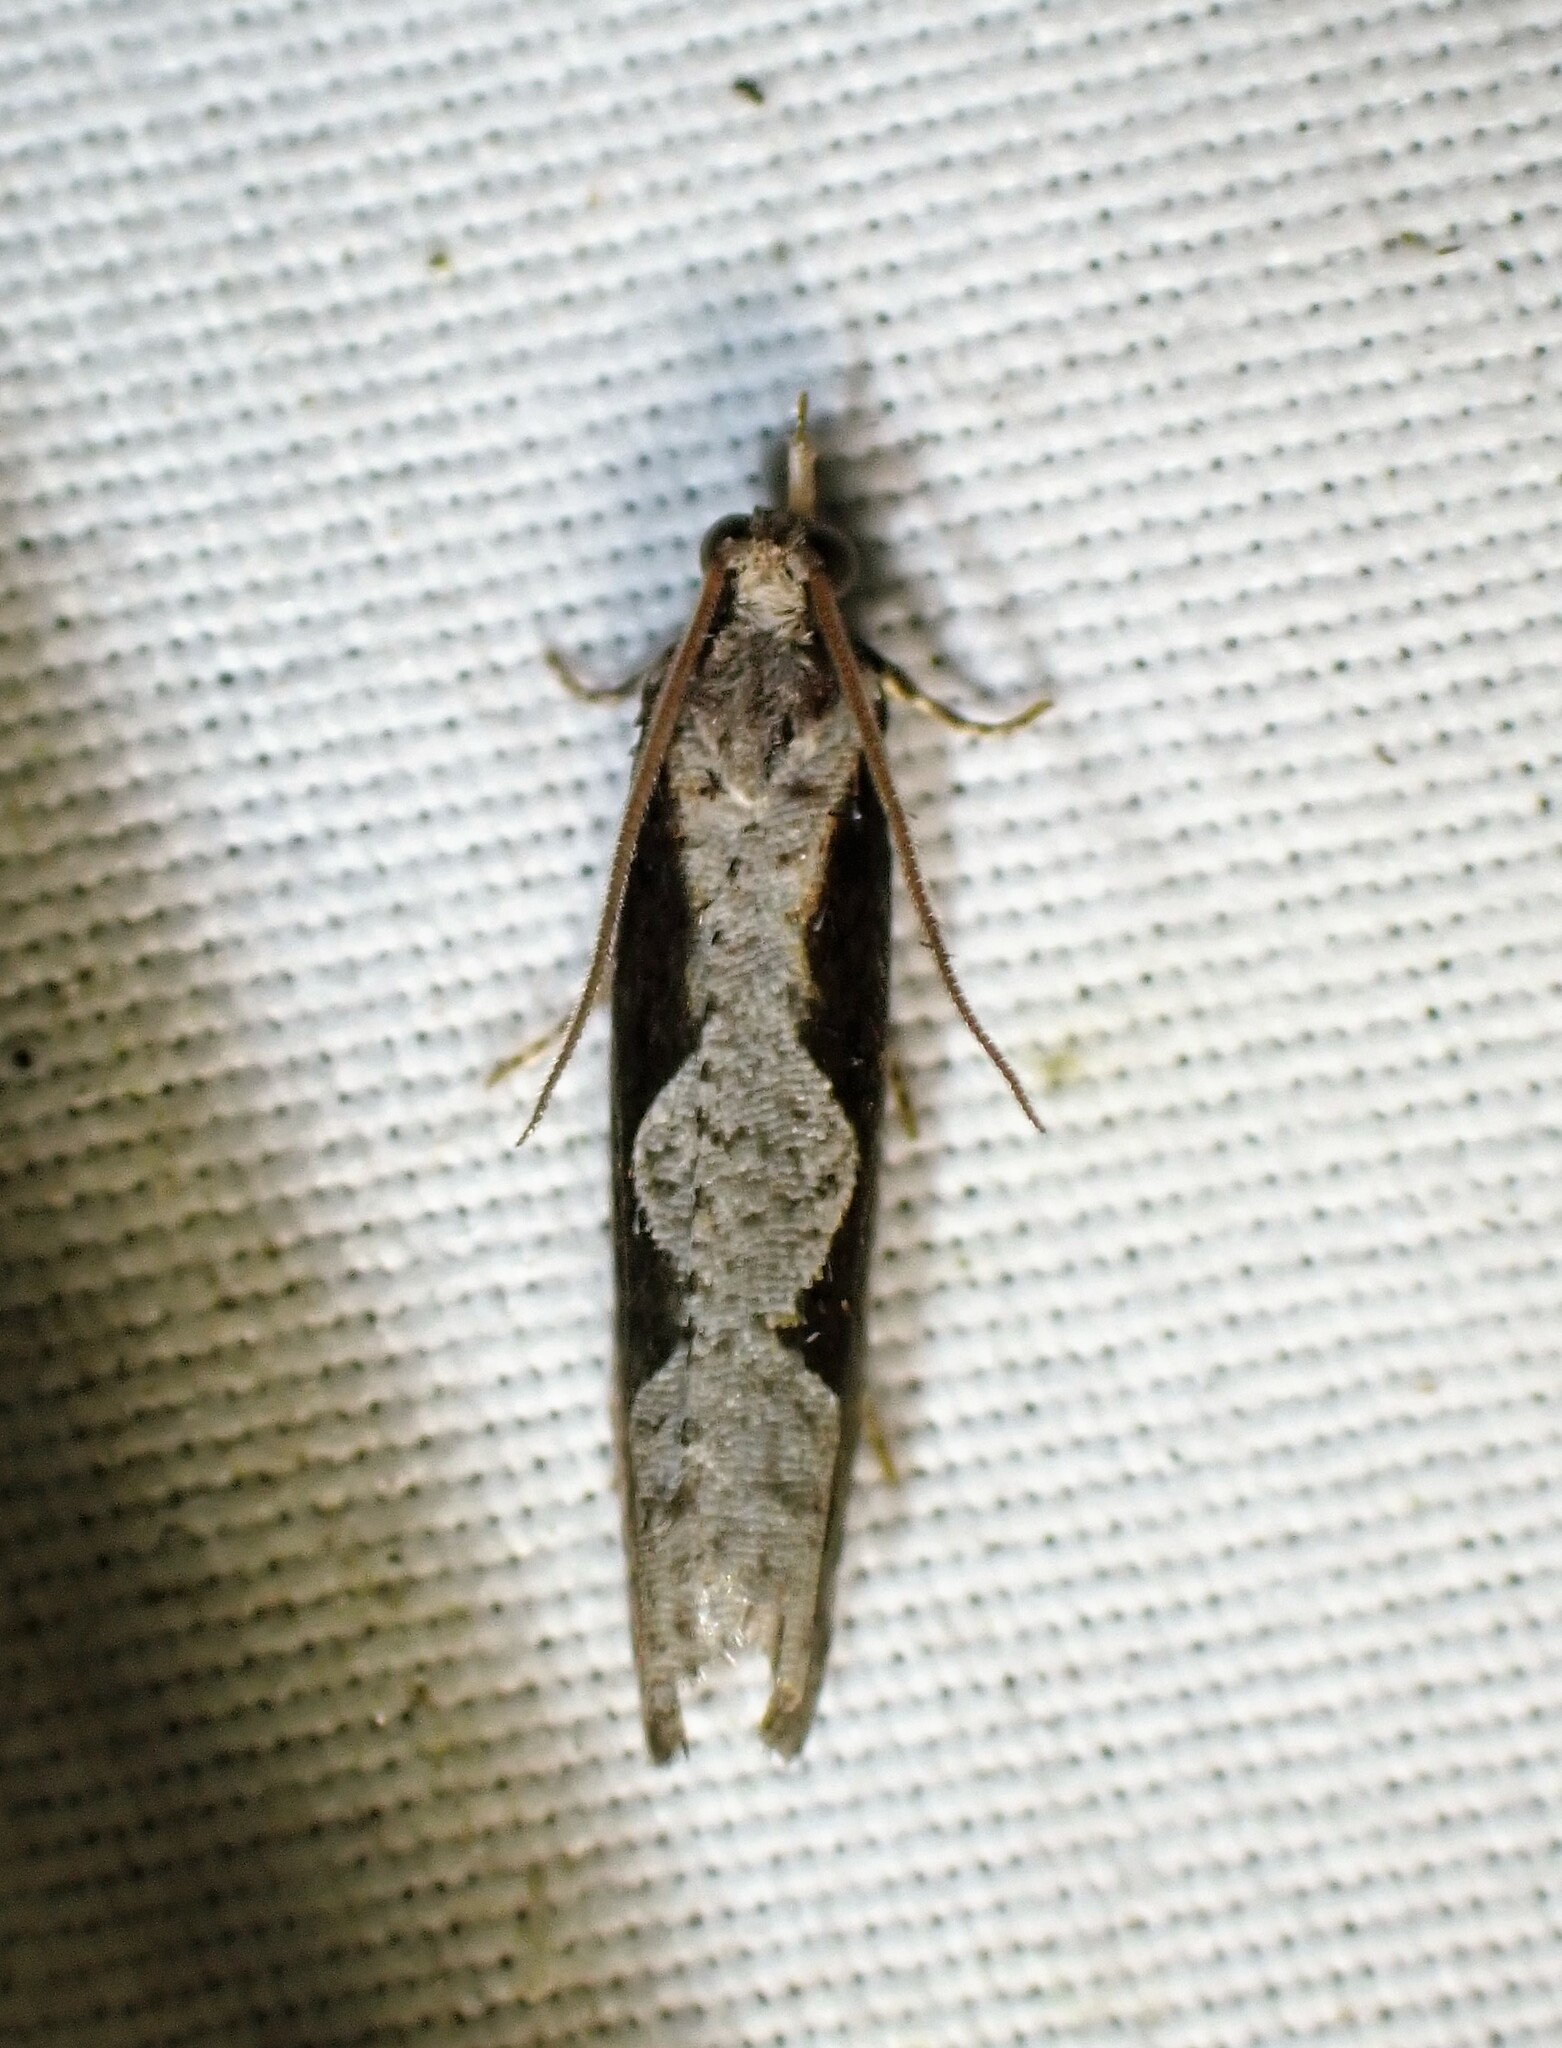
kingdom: Animalia
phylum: Arthropoda
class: Insecta
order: Lepidoptera
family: Tortricidae
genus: Epinotia
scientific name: Epinotia lindana
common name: Diamondback epinotia moth
